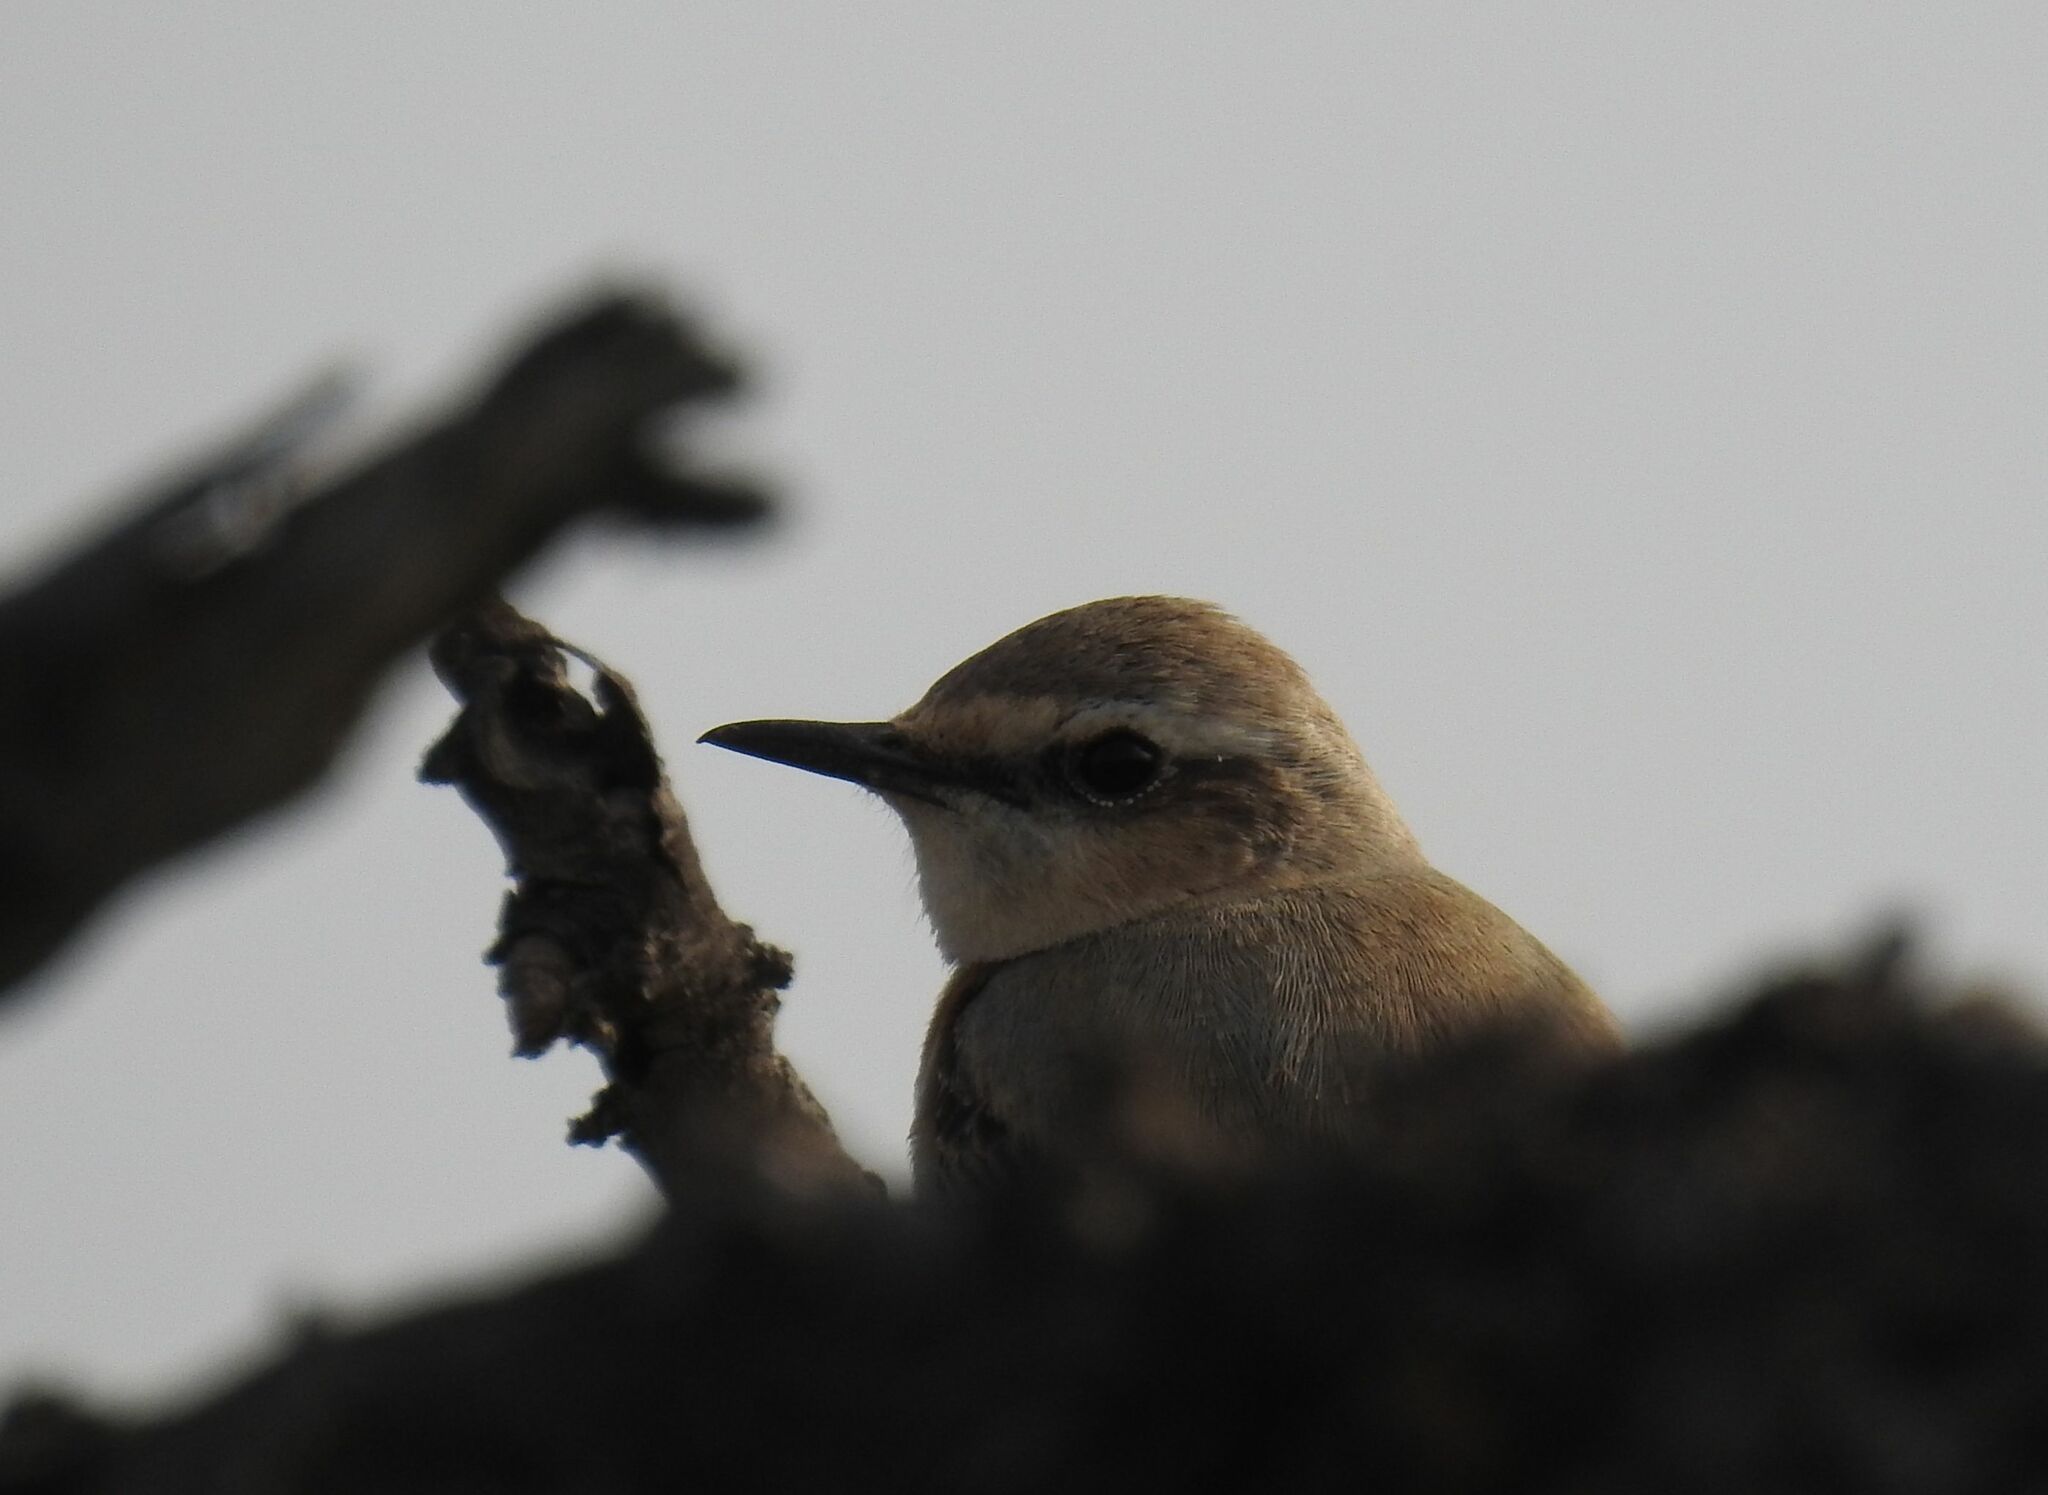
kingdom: Animalia
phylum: Chordata
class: Aves
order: Passeriformes
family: Muscicapidae
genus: Oenanthe
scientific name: Oenanthe oenanthe
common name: Northern wheatear
